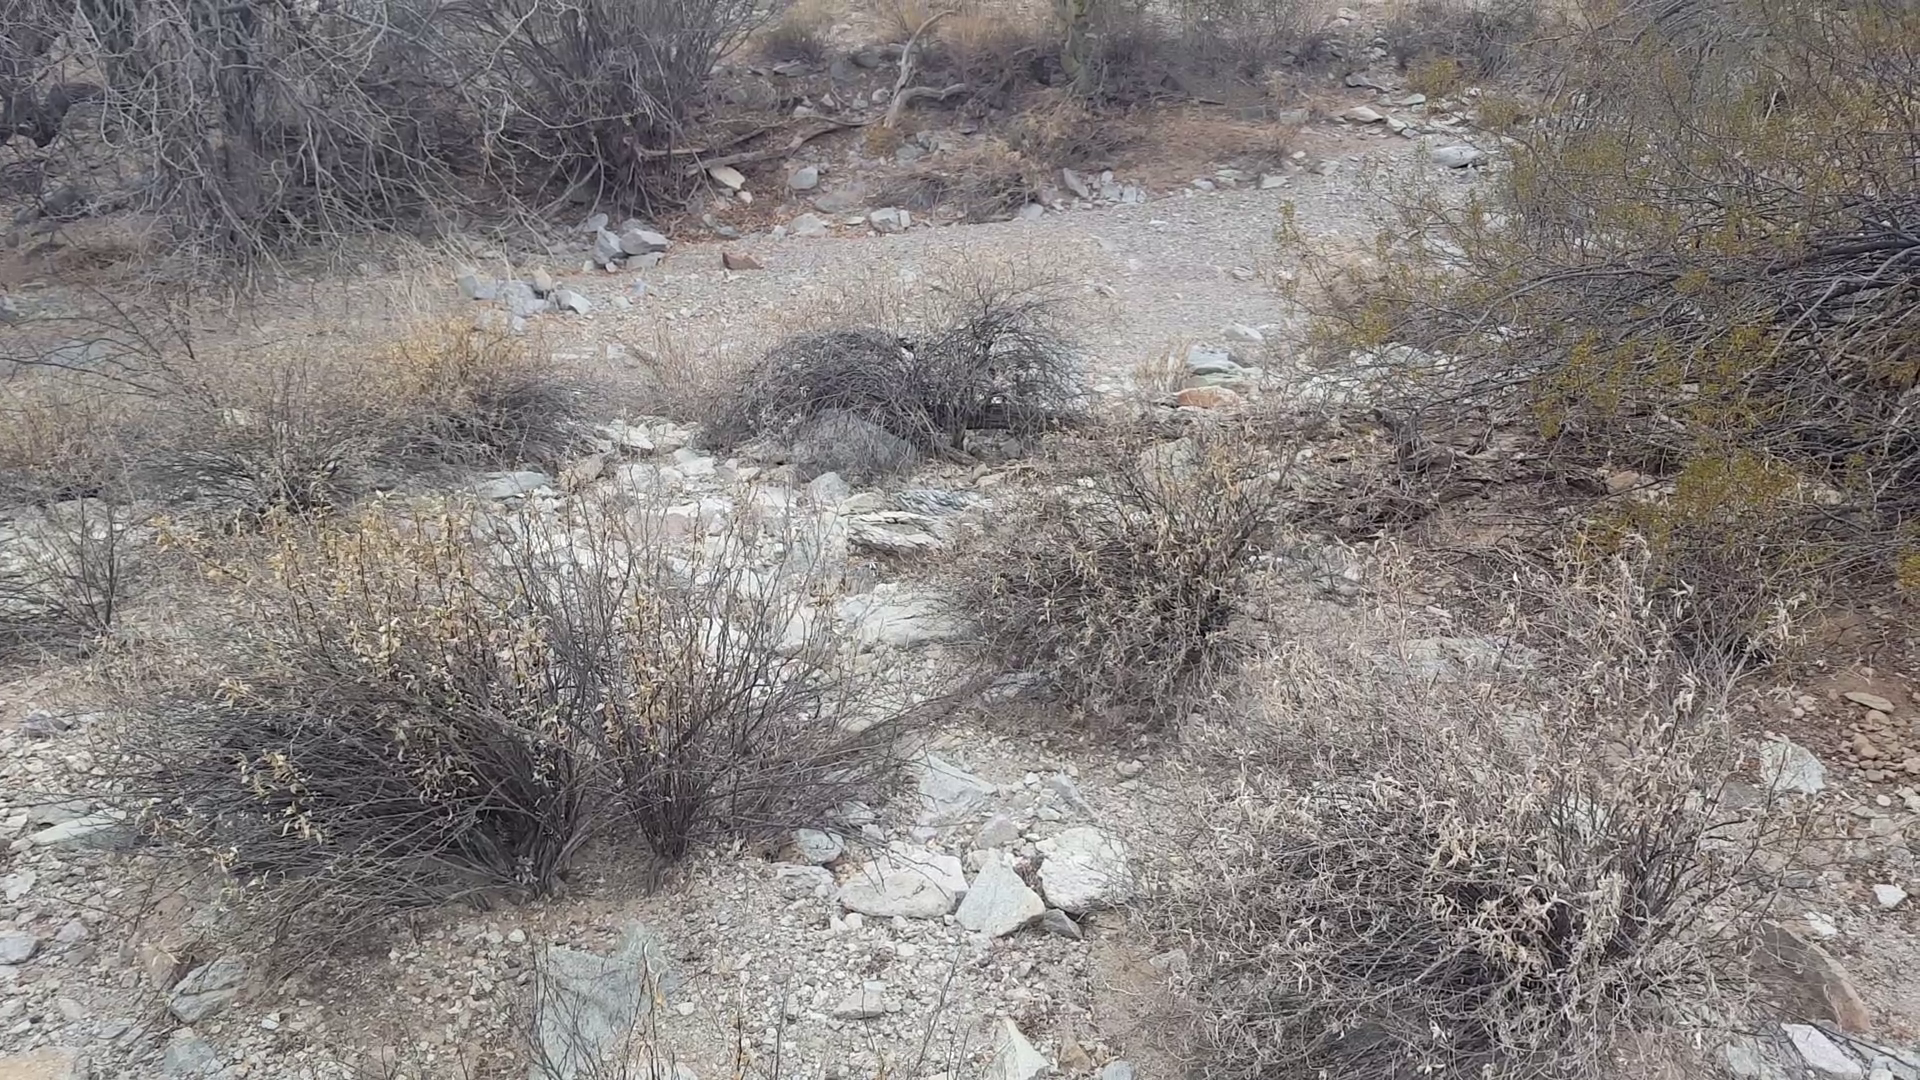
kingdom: Animalia
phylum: Chordata
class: Squamata
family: Viperidae
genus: Crotalus
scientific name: Crotalus tigris
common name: Tiger rattlesnake
